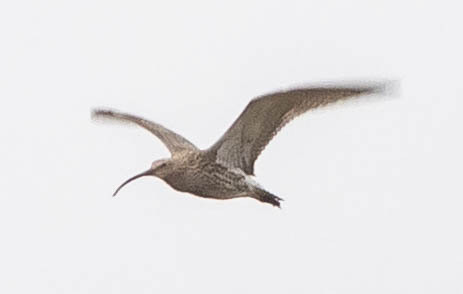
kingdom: Animalia
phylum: Chordata
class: Aves
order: Charadriiformes
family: Scolopacidae
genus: Numenius
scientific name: Numenius arquata
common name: Eurasian curlew
